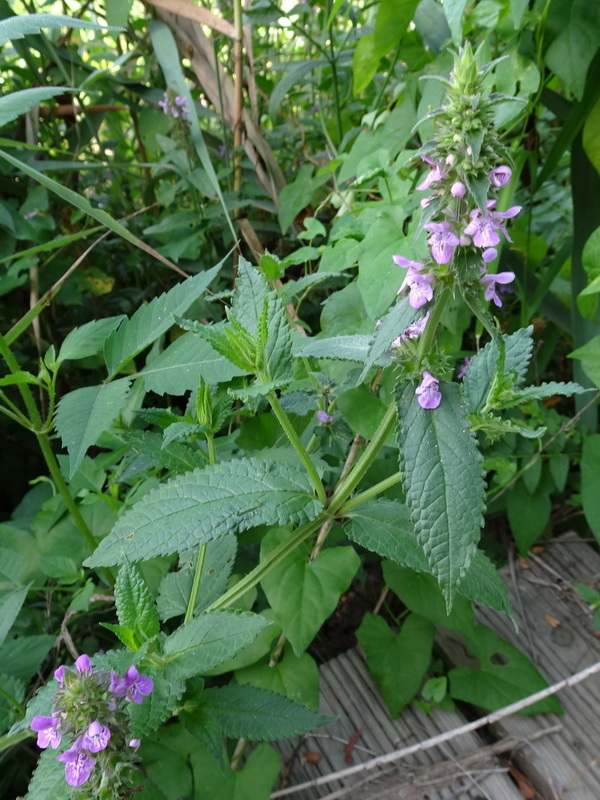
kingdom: Plantae
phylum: Tracheophyta
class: Magnoliopsida
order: Lamiales
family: Lamiaceae
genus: Stachys
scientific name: Stachys palustris
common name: Marsh woundwort
